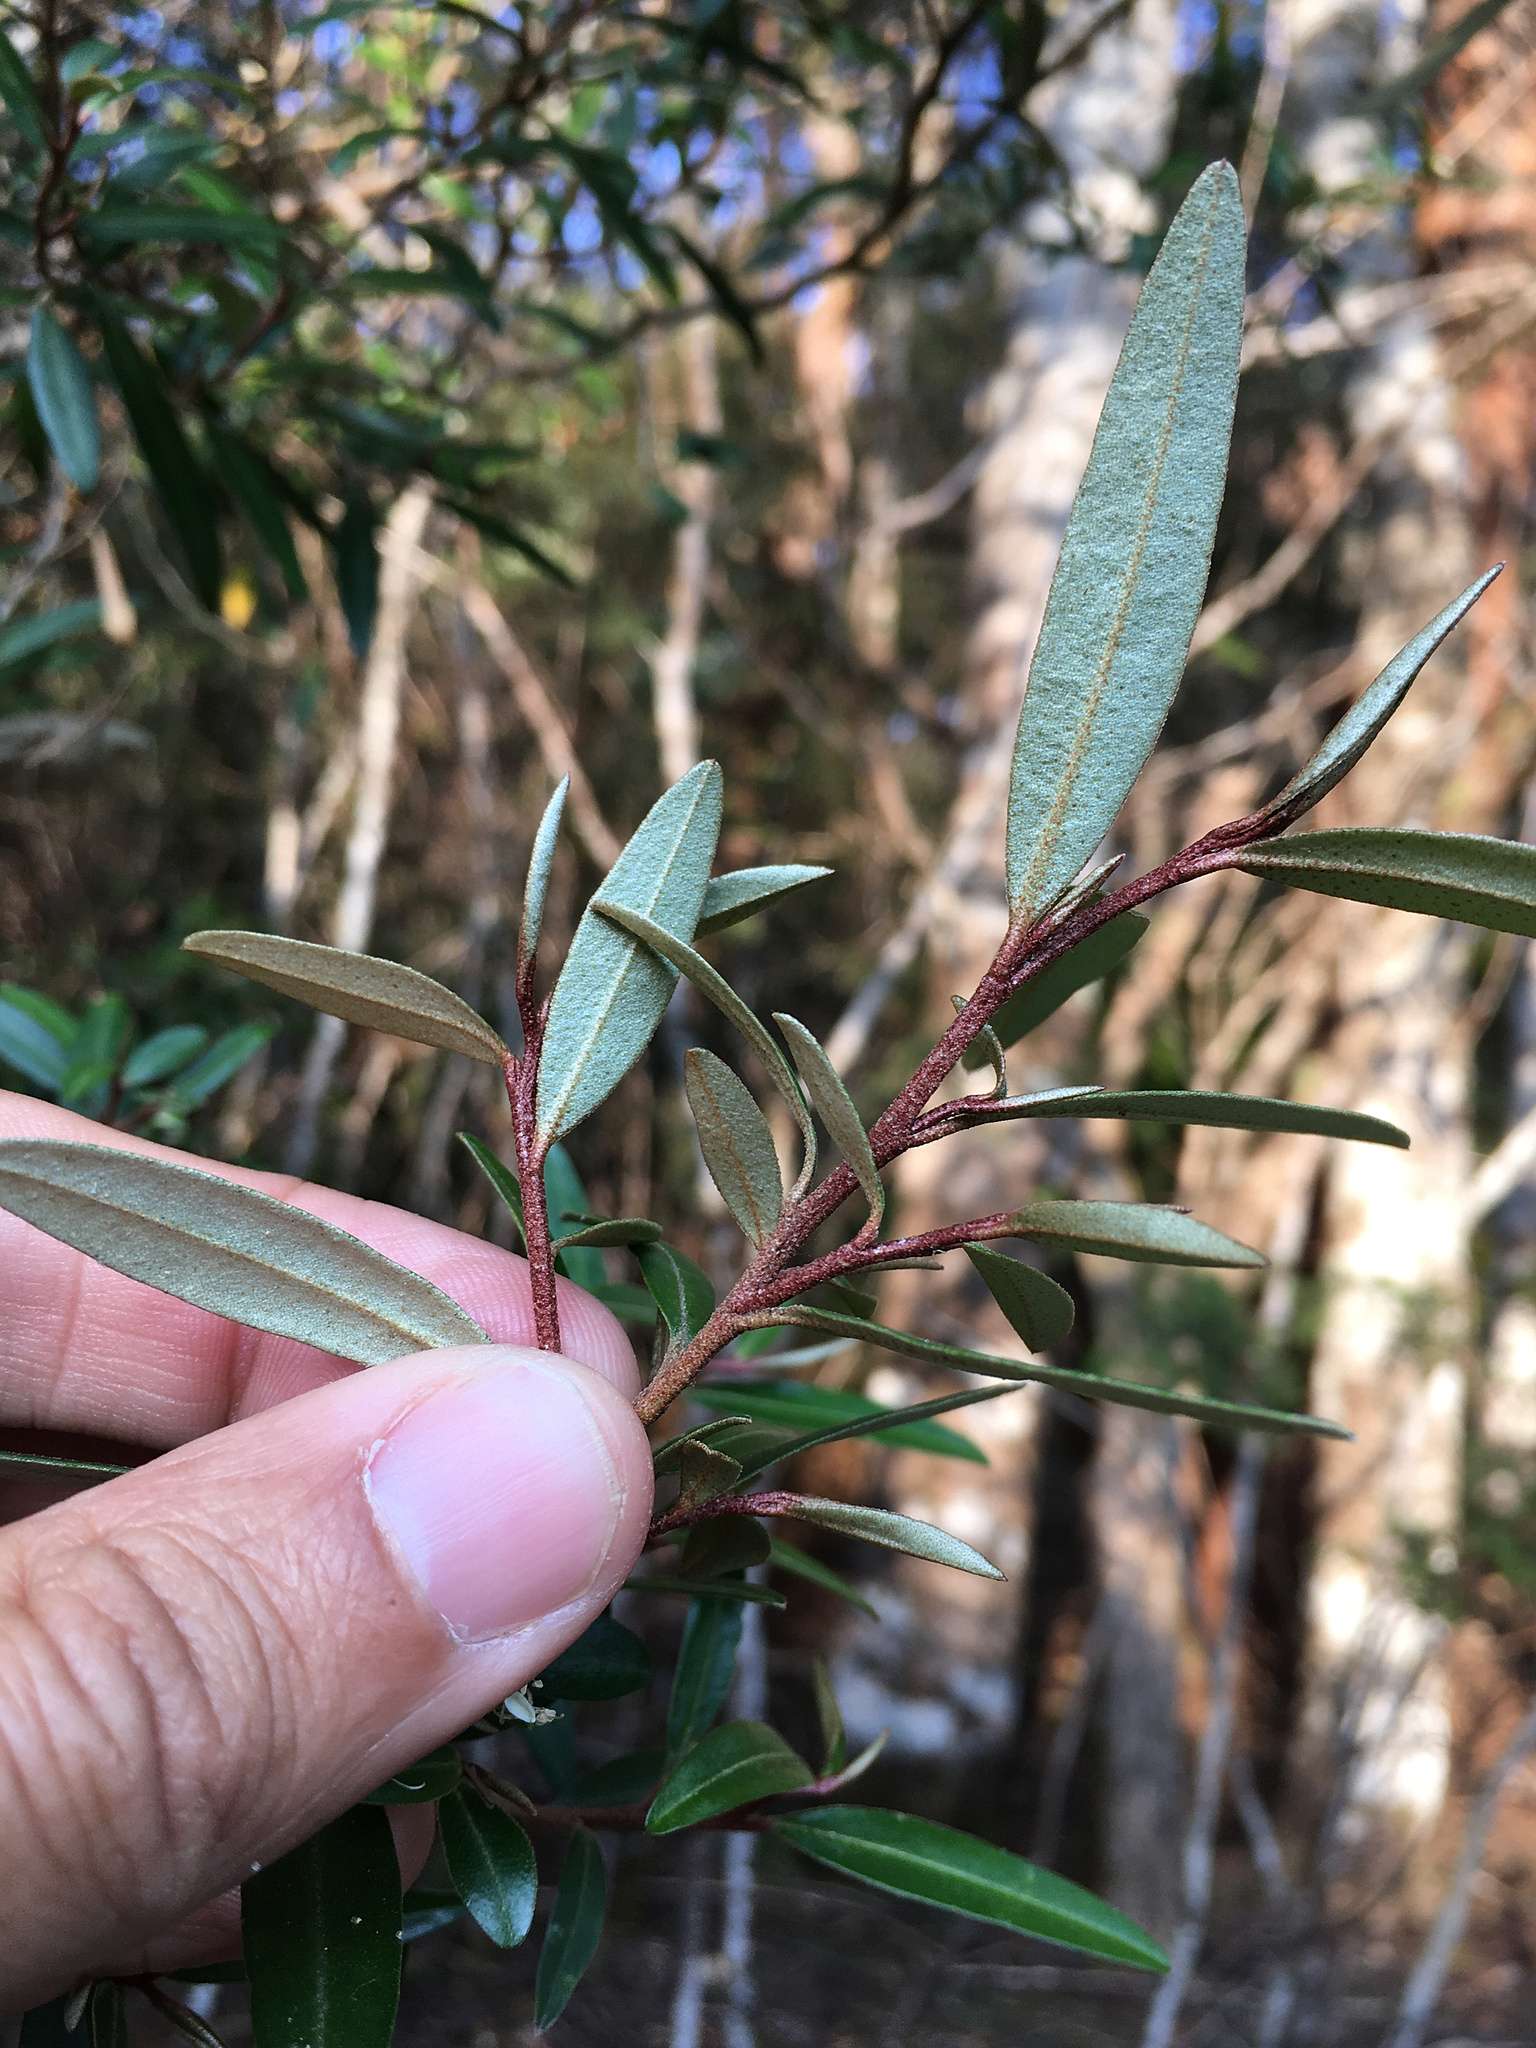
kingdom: Plantae
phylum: Tracheophyta
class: Magnoliopsida
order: Sapindales
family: Rutaceae
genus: Nematolepis
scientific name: Nematolepis squamea
